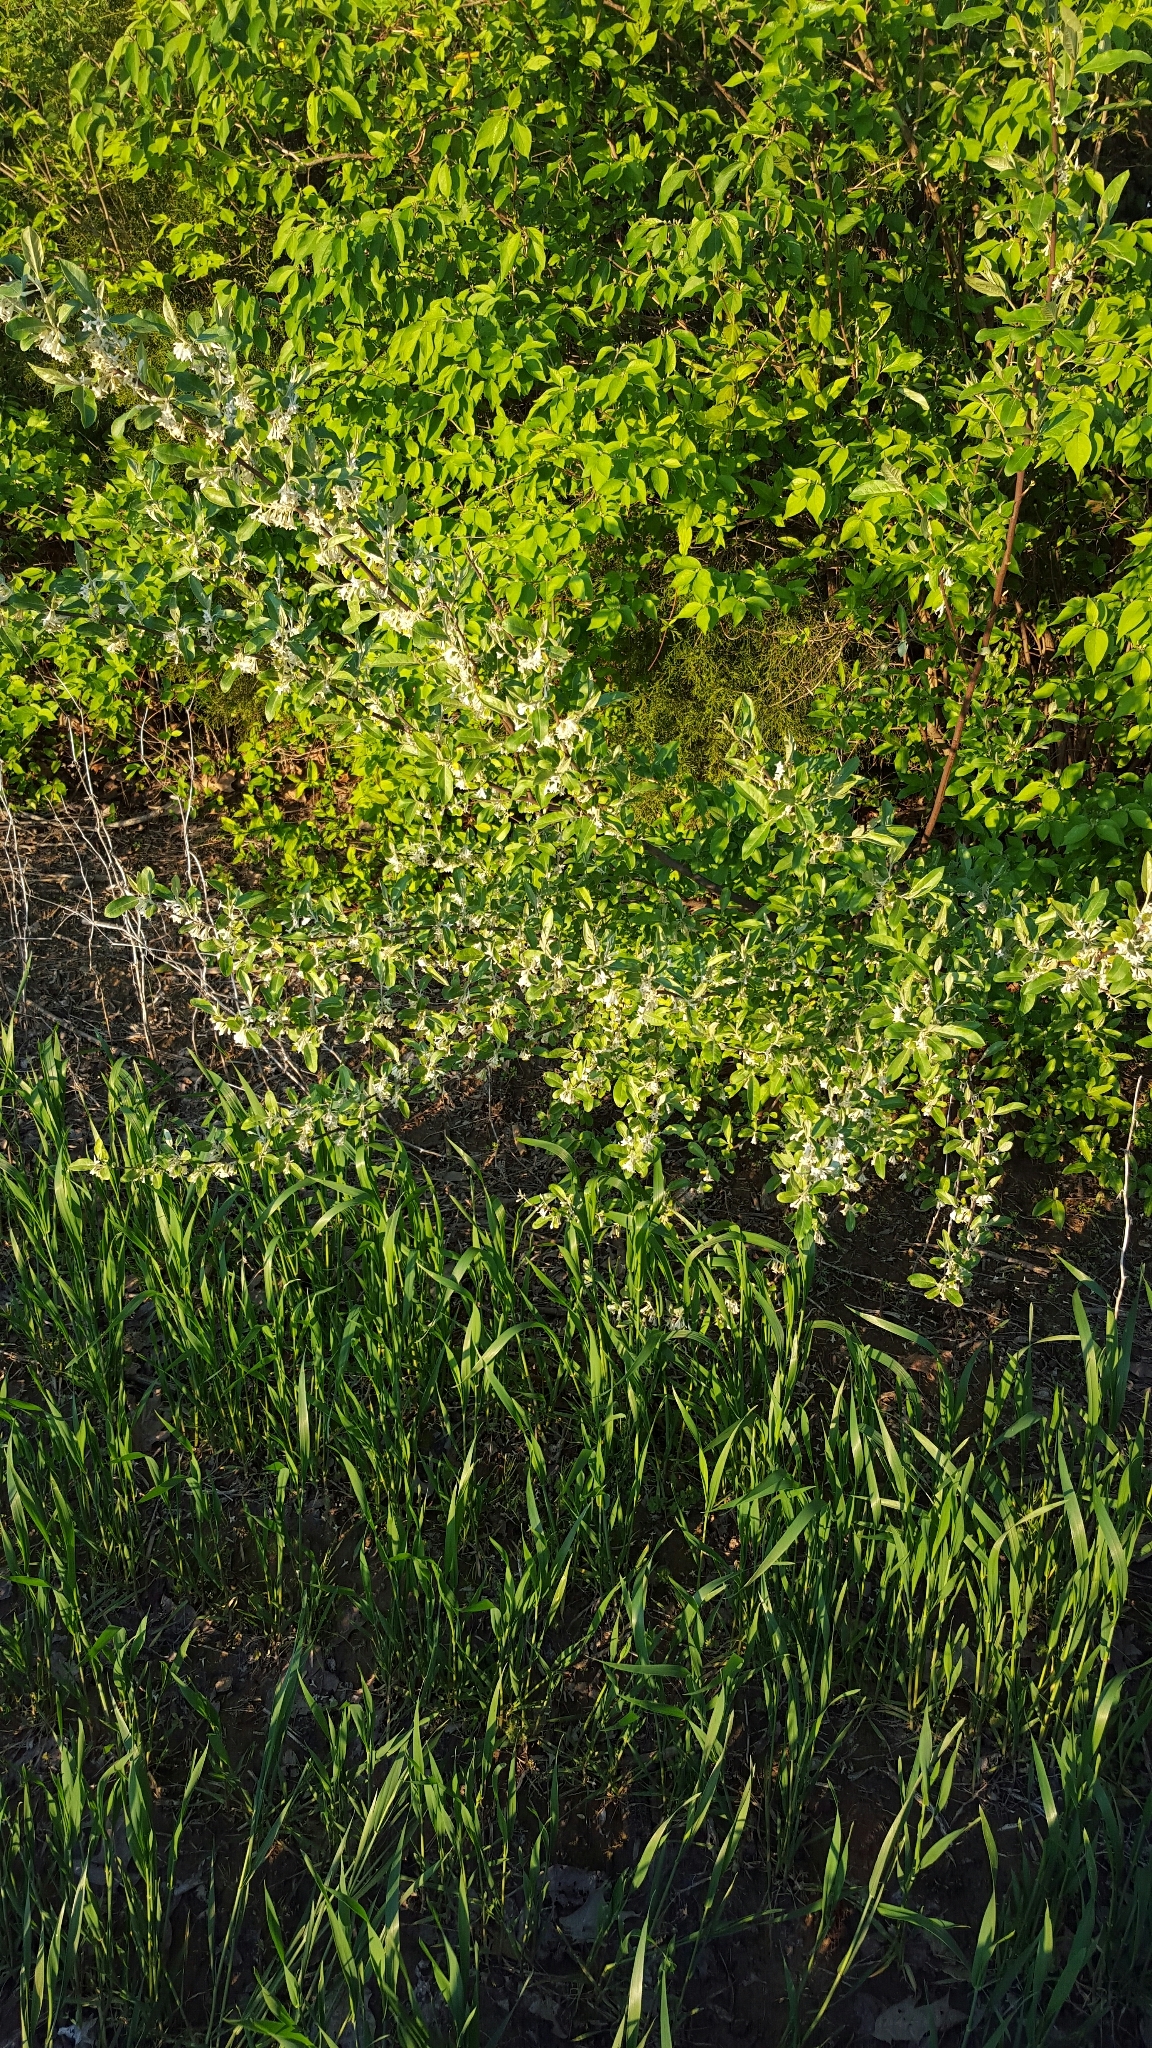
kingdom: Plantae
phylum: Tracheophyta
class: Magnoliopsida
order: Rosales
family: Elaeagnaceae
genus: Elaeagnus
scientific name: Elaeagnus umbellata
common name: Autumn olive
